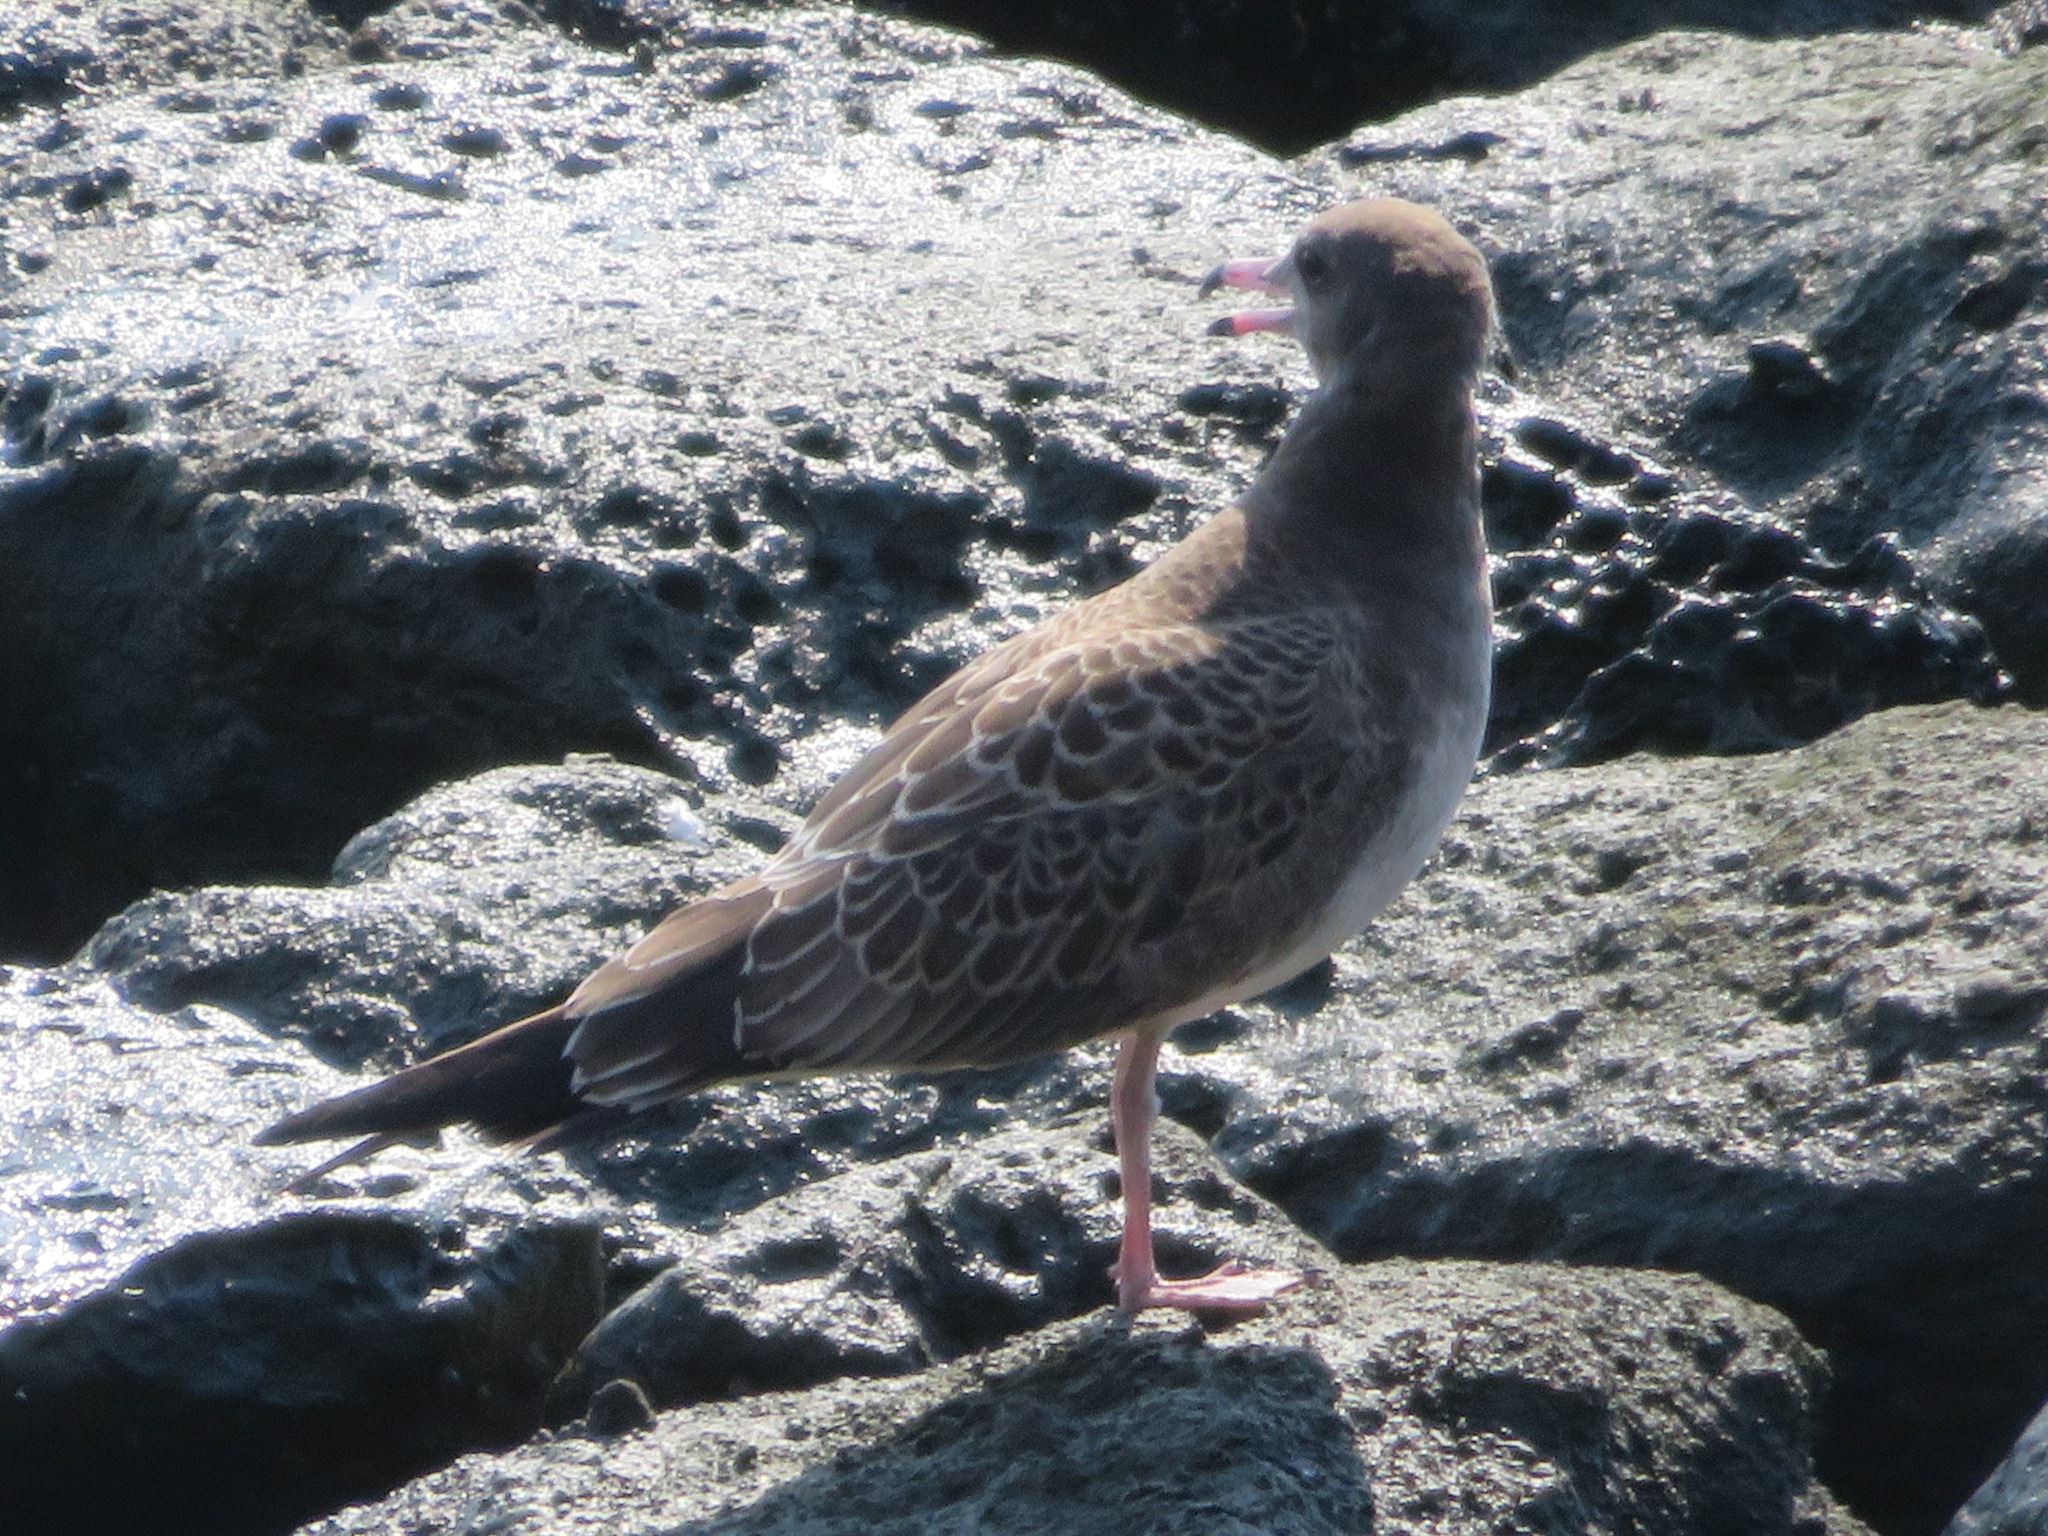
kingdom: Animalia
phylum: Chordata
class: Aves
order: Charadriiformes
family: Laridae
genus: Larus
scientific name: Larus crassirostris
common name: Black-tailed gull
